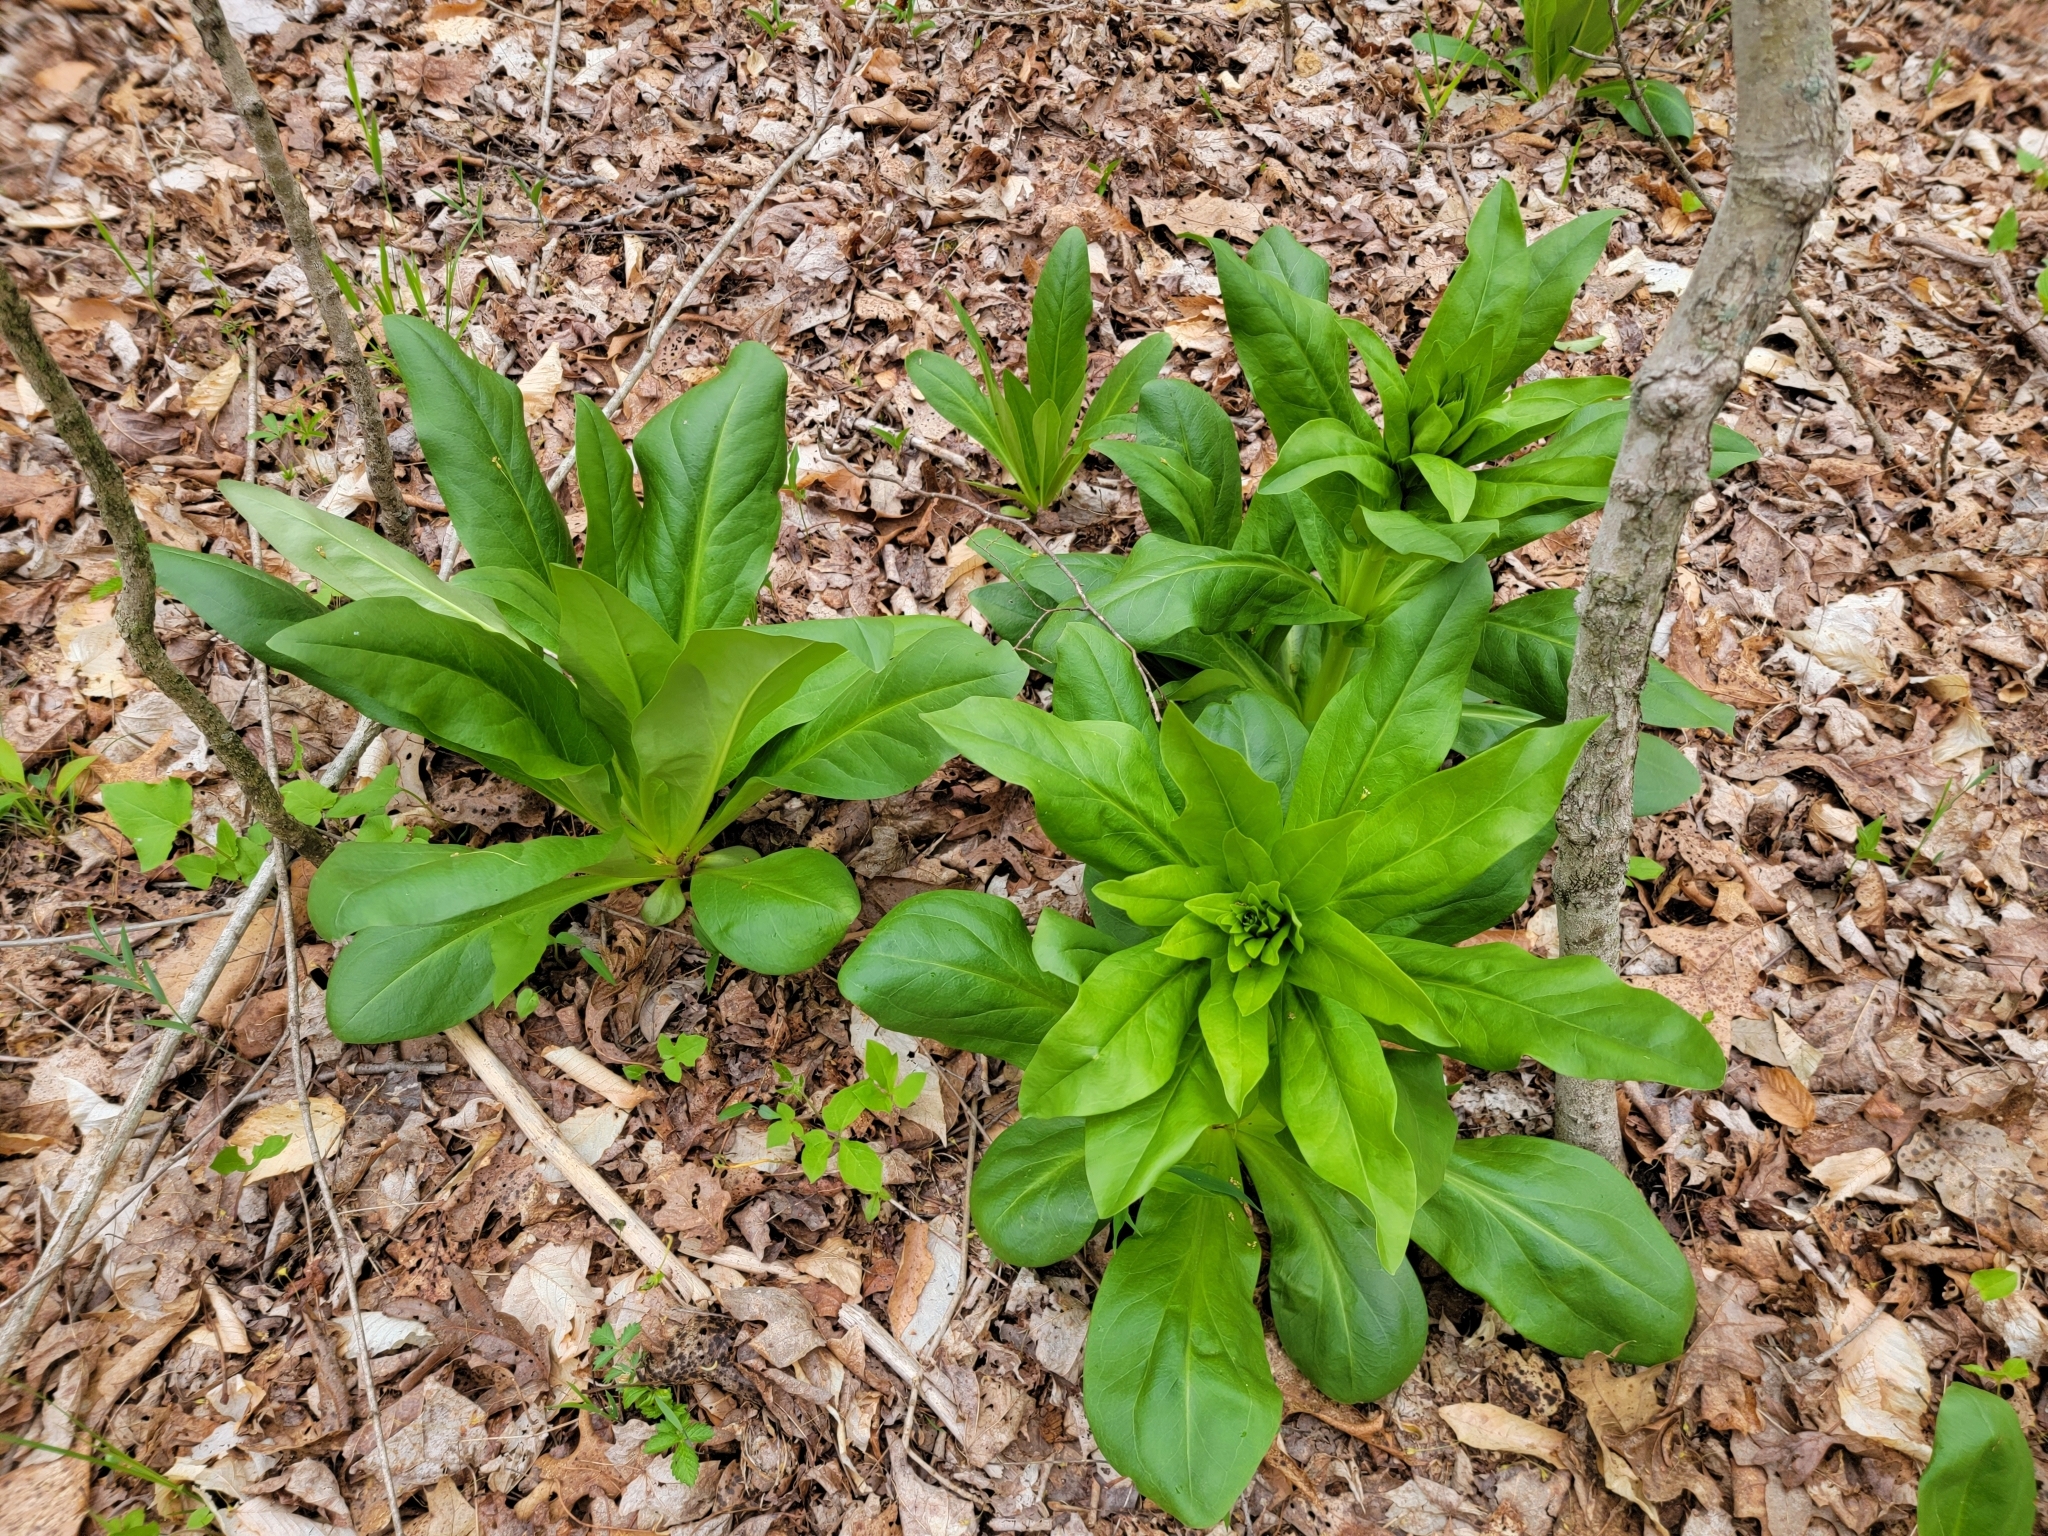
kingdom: Plantae
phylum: Tracheophyta
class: Magnoliopsida
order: Gentianales
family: Gentianaceae
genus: Frasera
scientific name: Frasera caroliniensis
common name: American columbo
